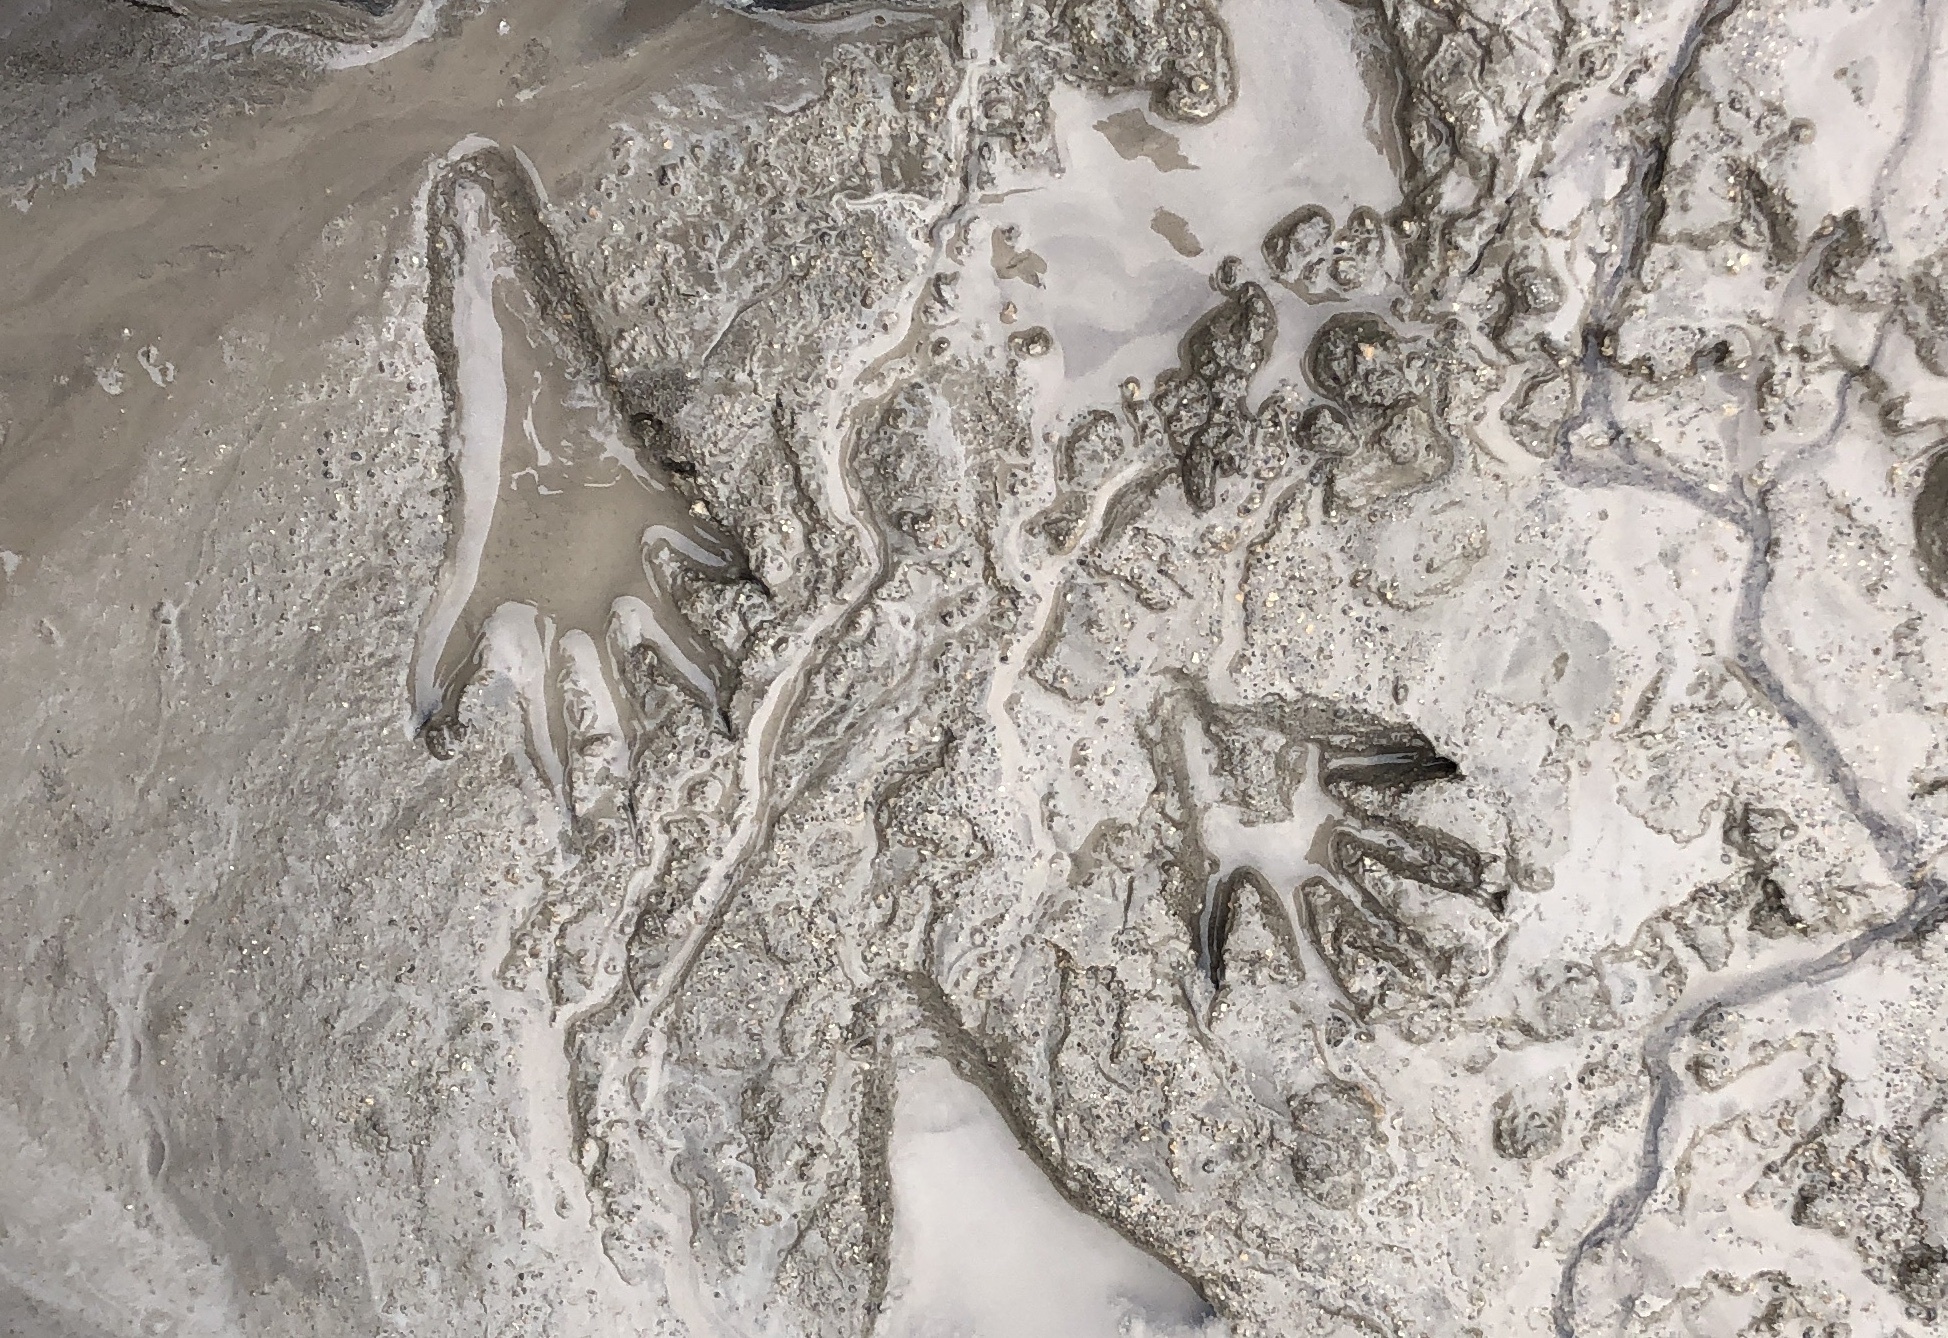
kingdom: Animalia
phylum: Chordata
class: Mammalia
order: Carnivora
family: Procyonidae
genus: Procyon
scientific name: Procyon lotor
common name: Raccoon
